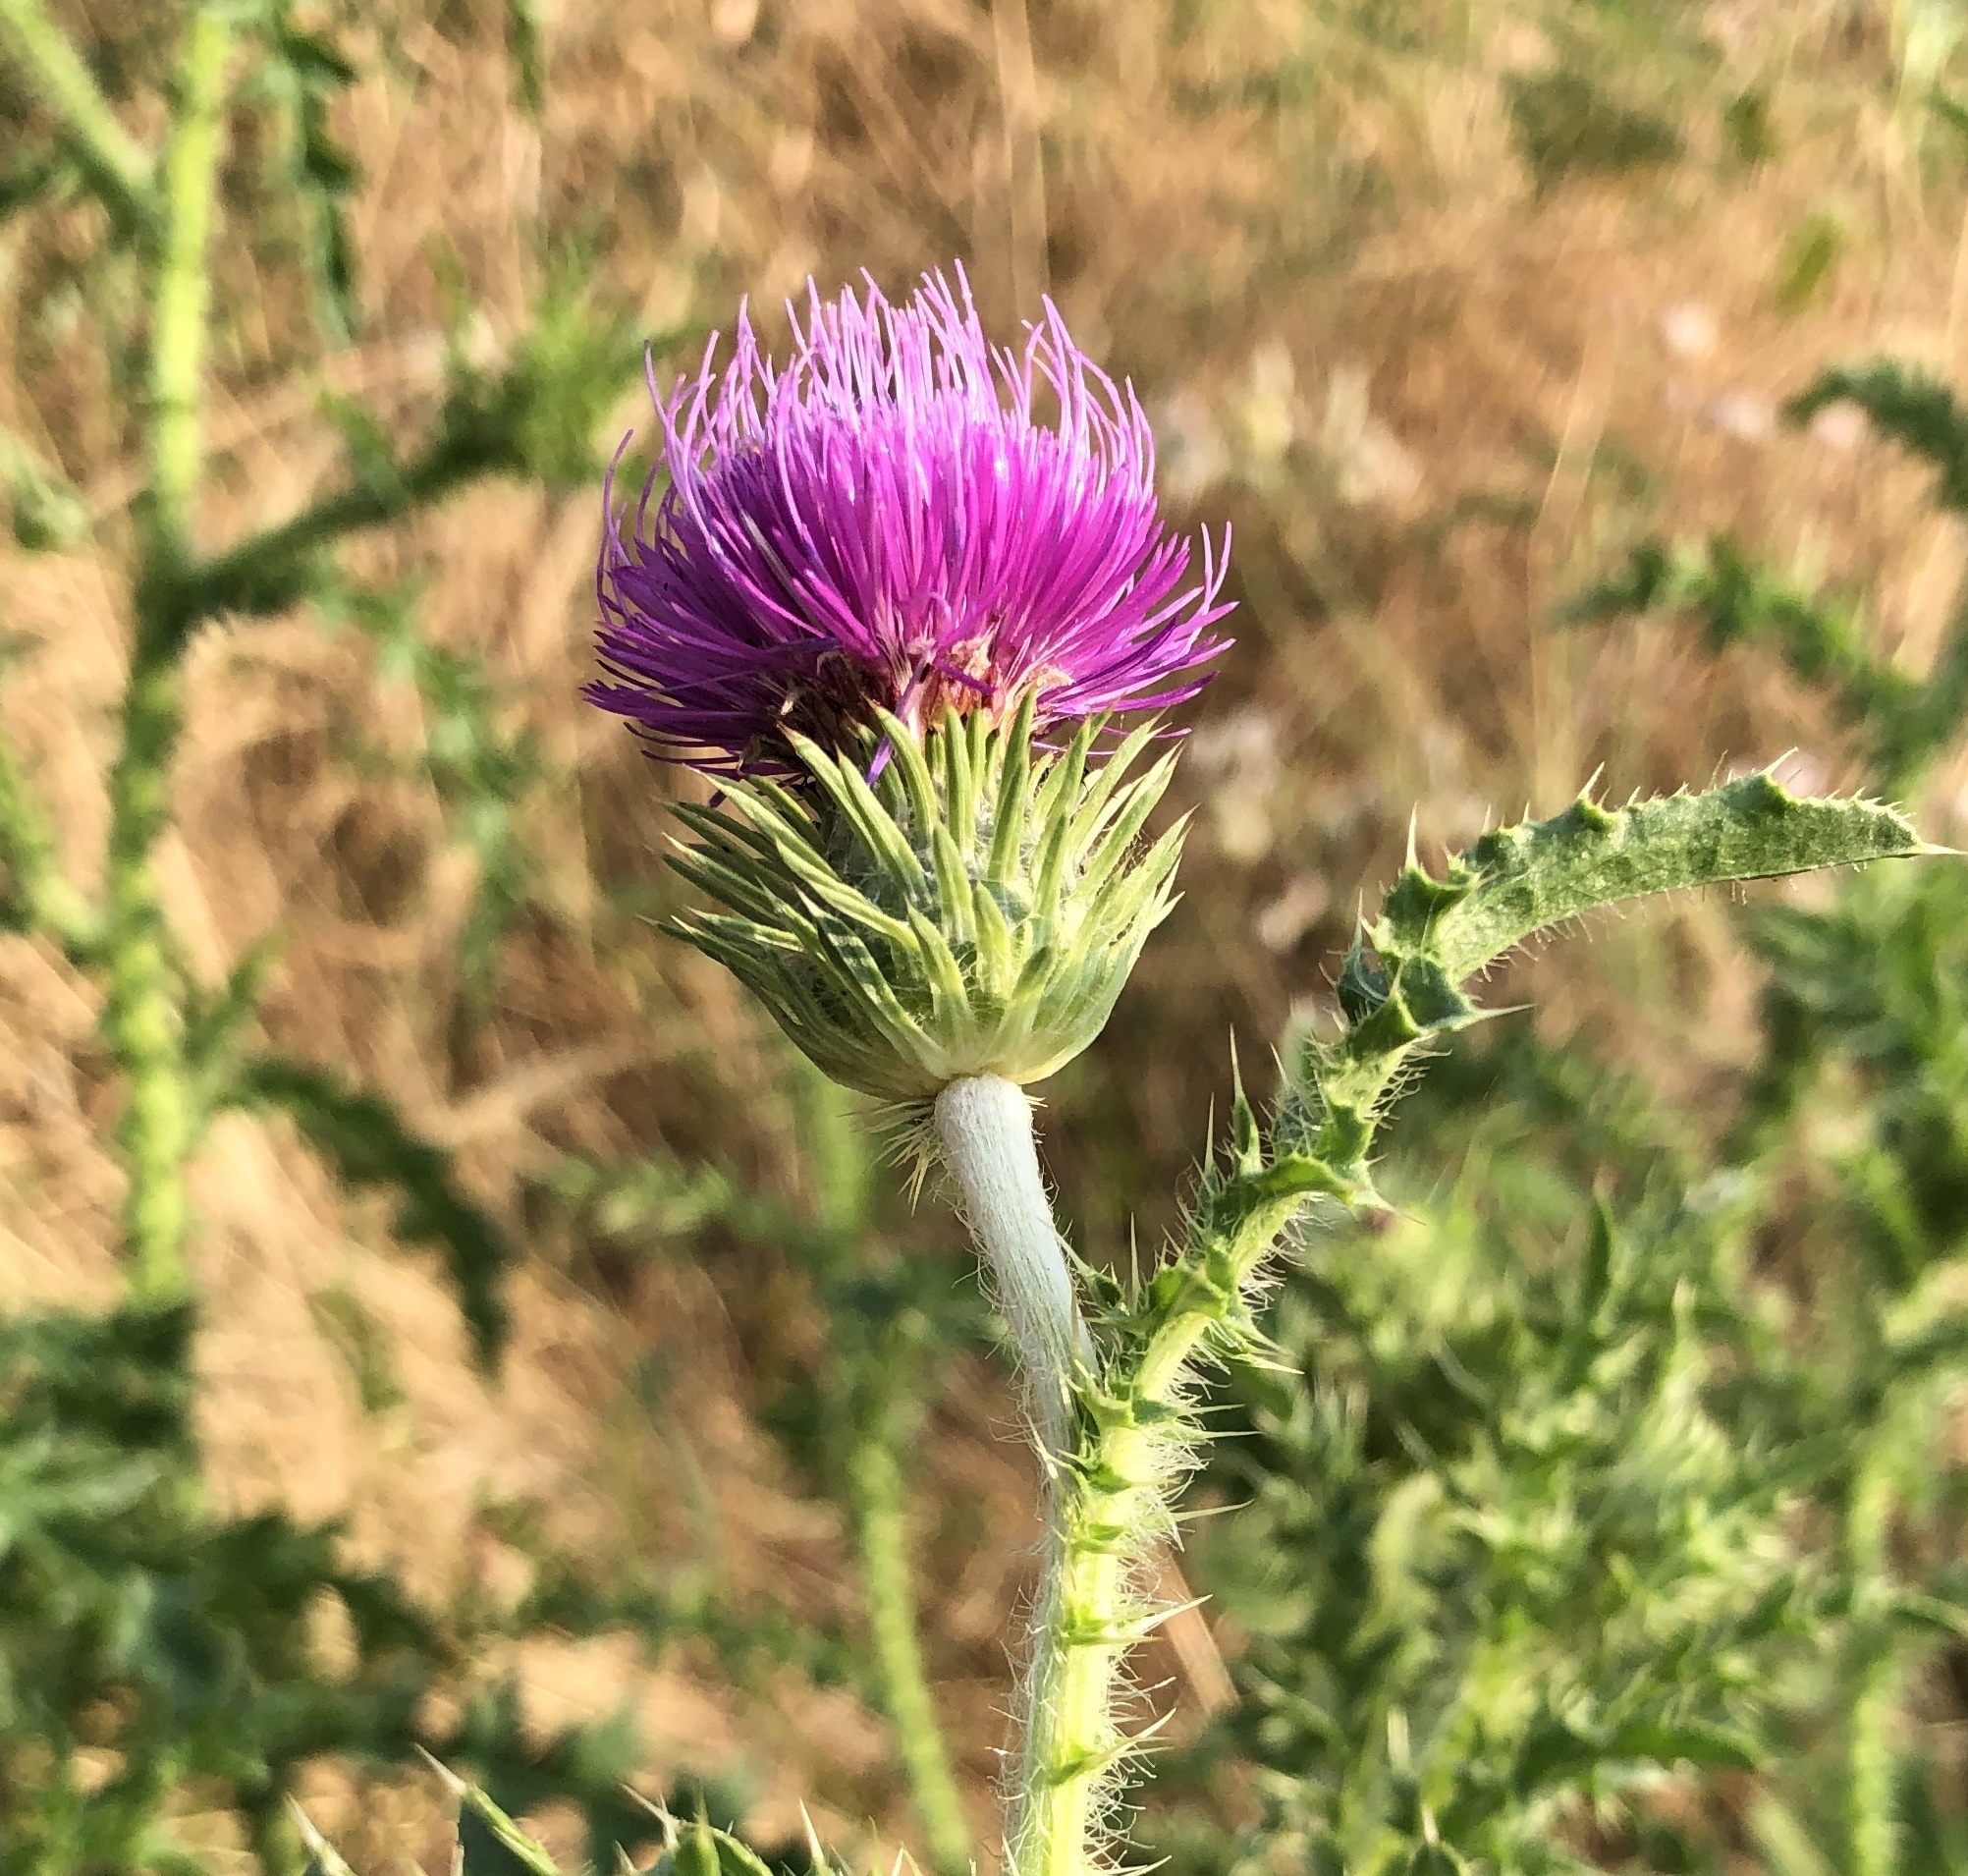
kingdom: Plantae
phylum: Tracheophyta
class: Magnoliopsida
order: Asterales
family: Asteraceae
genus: Carduus
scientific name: Carduus acanthoides
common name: Plumeless thistle
